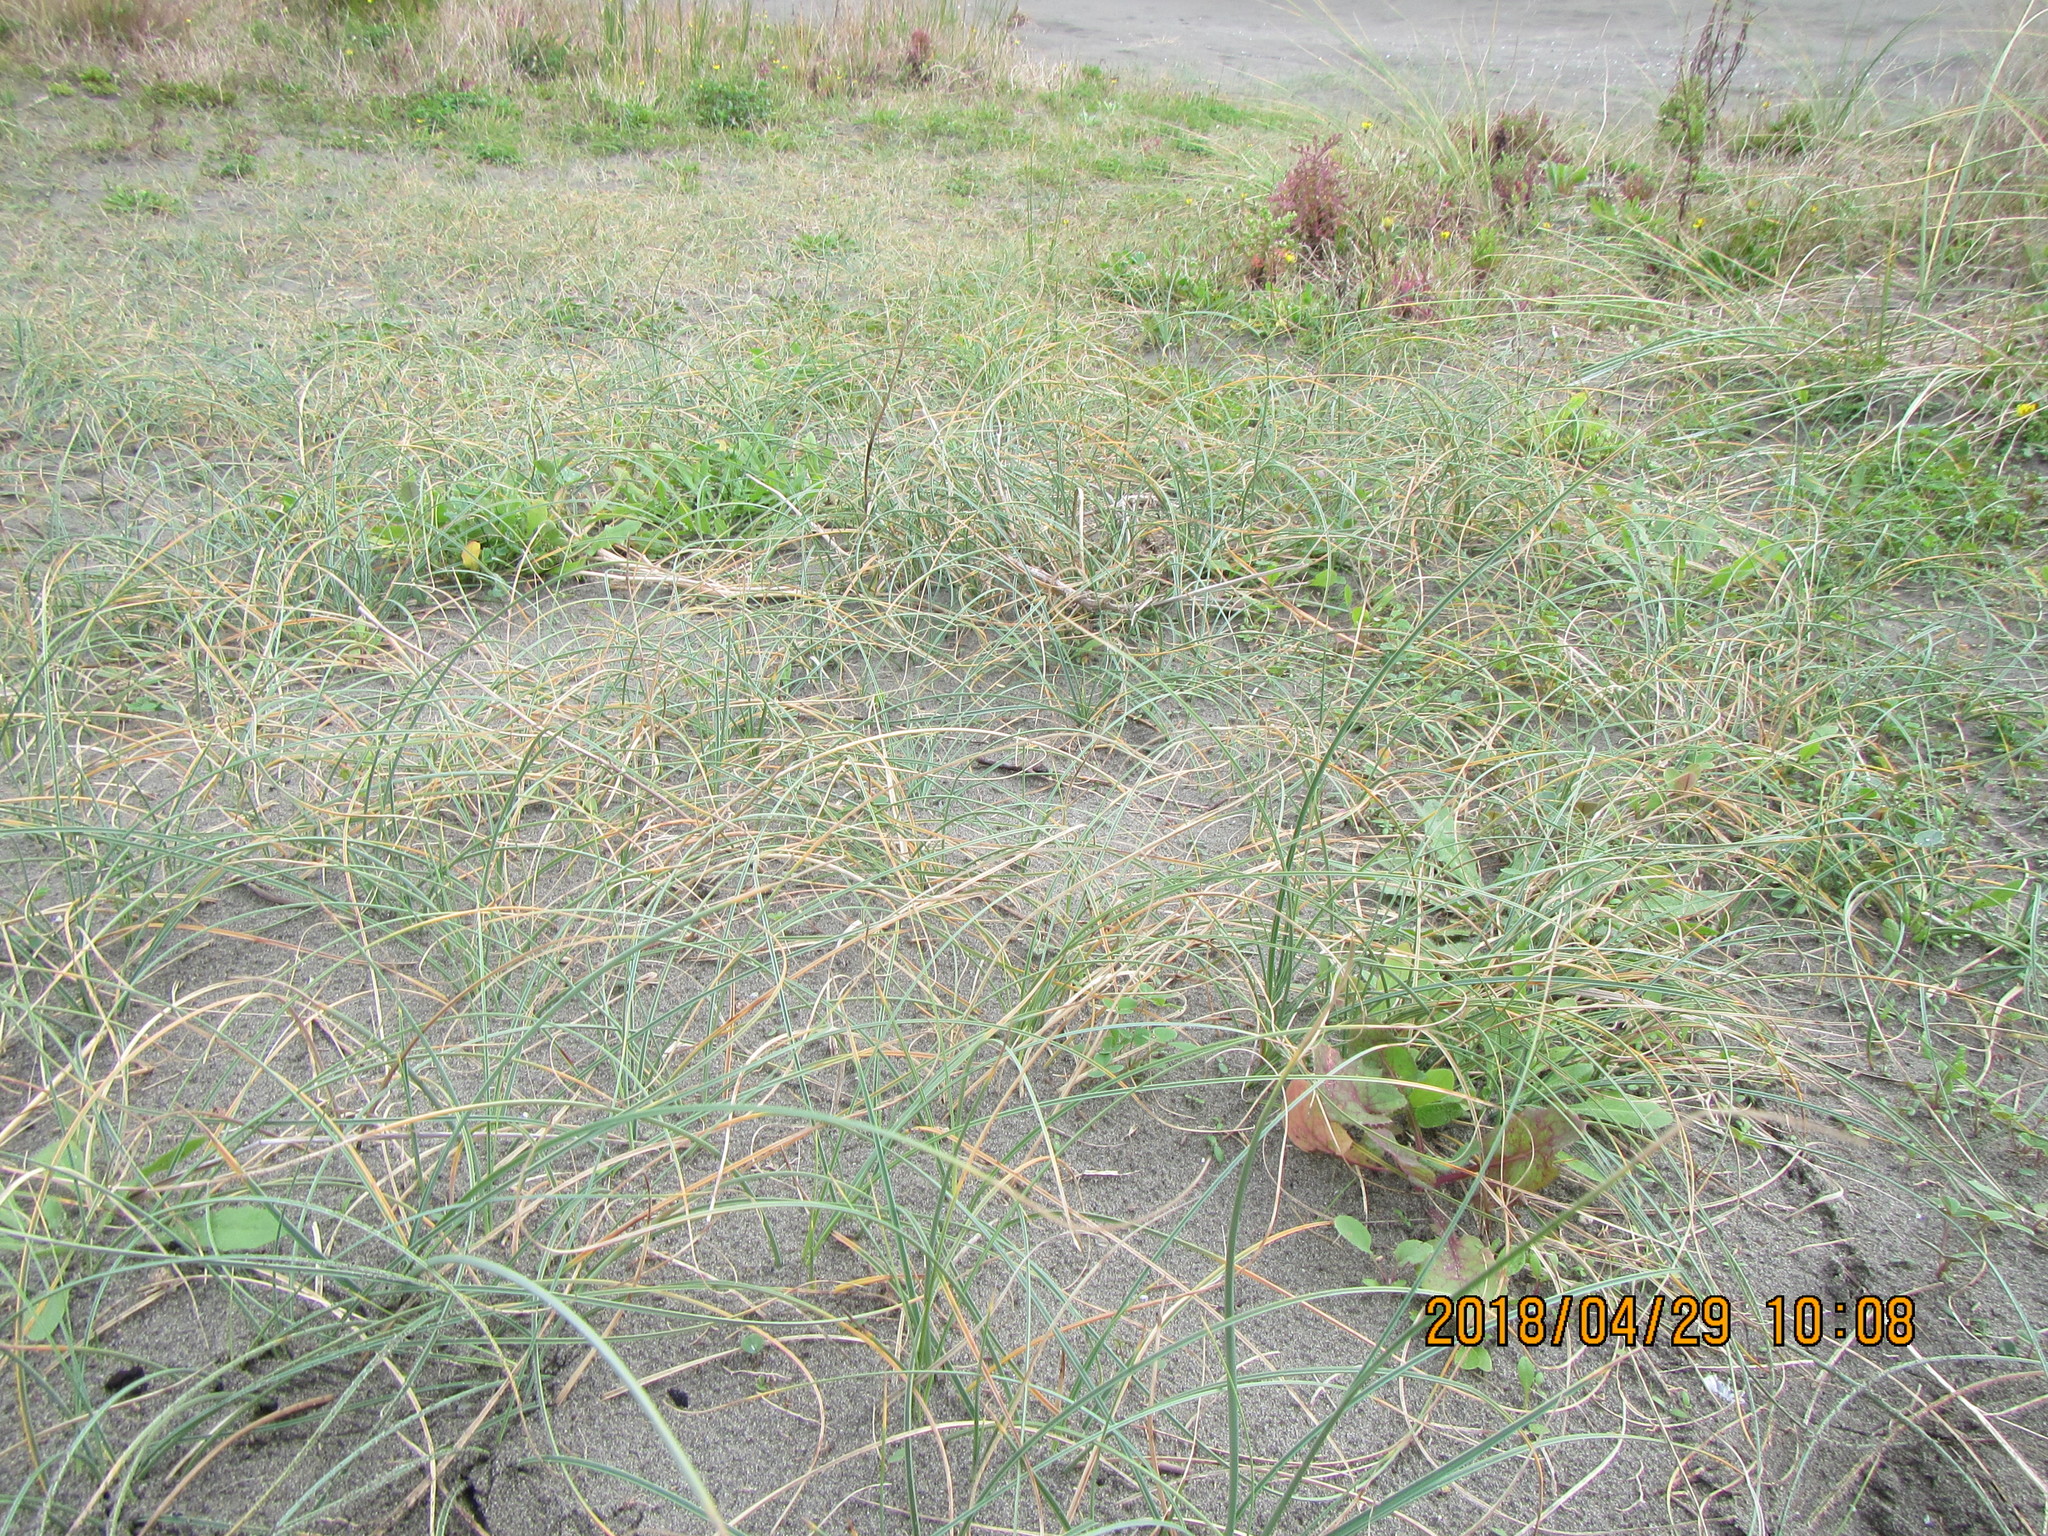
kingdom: Plantae
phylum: Tracheophyta
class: Liliopsida
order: Poales
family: Cyperaceae
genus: Carex
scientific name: Carex pumila
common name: Dwarf sedge
